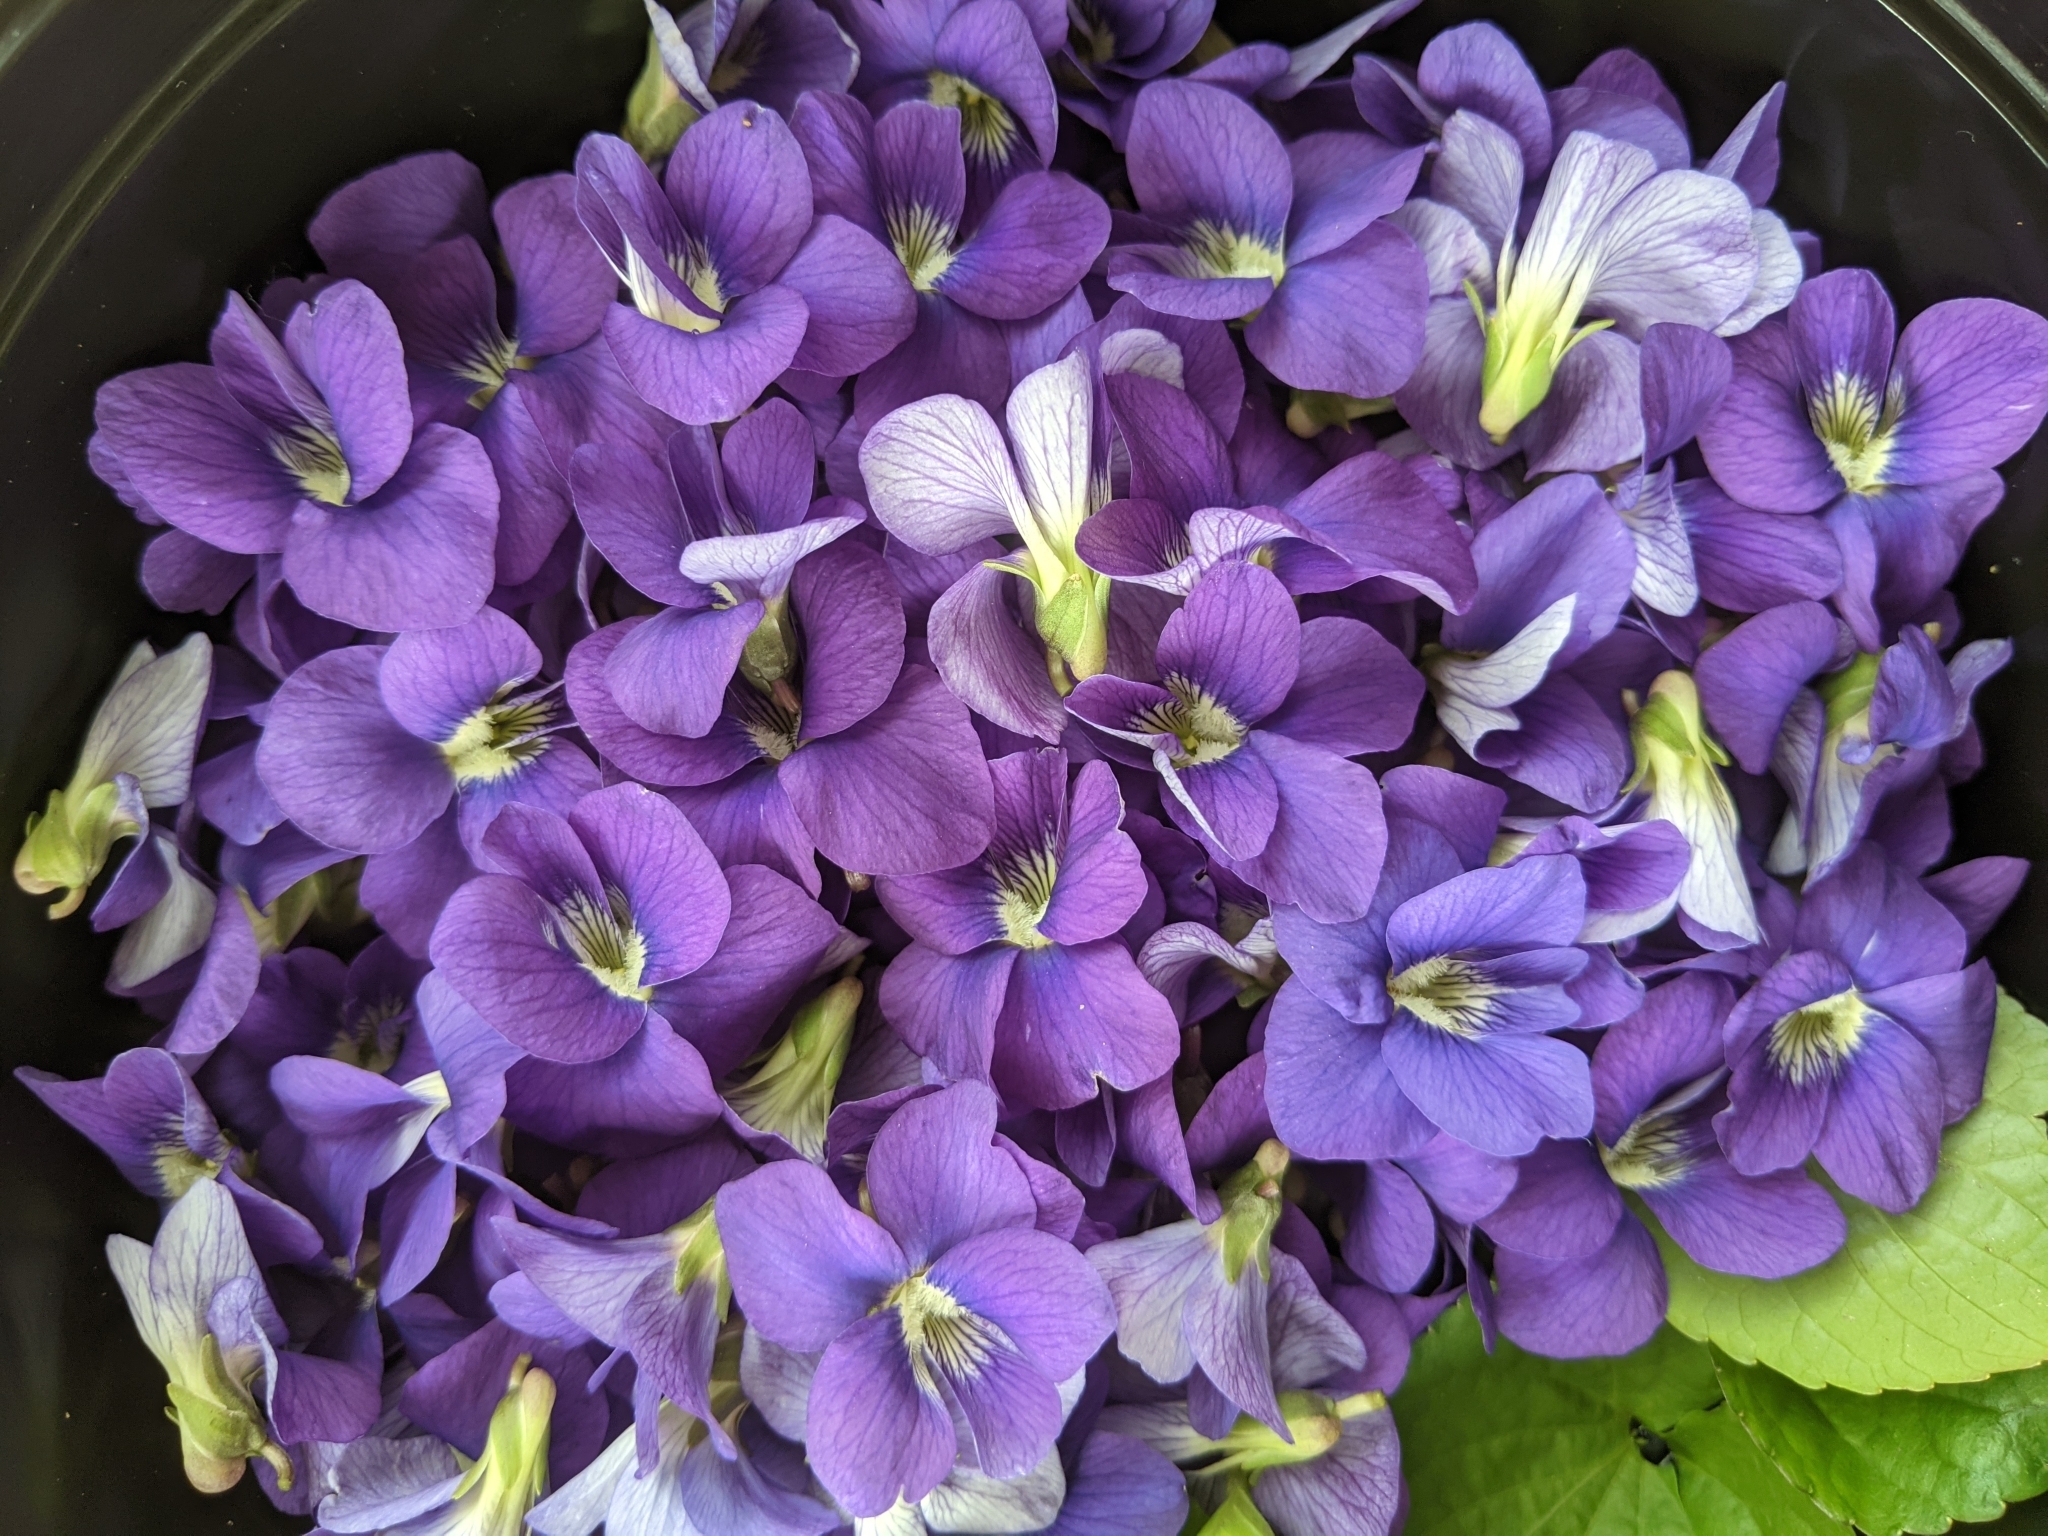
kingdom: Plantae
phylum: Tracheophyta
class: Magnoliopsida
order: Malpighiales
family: Violaceae
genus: Viola
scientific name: Viola sororia
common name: Dooryard violet
